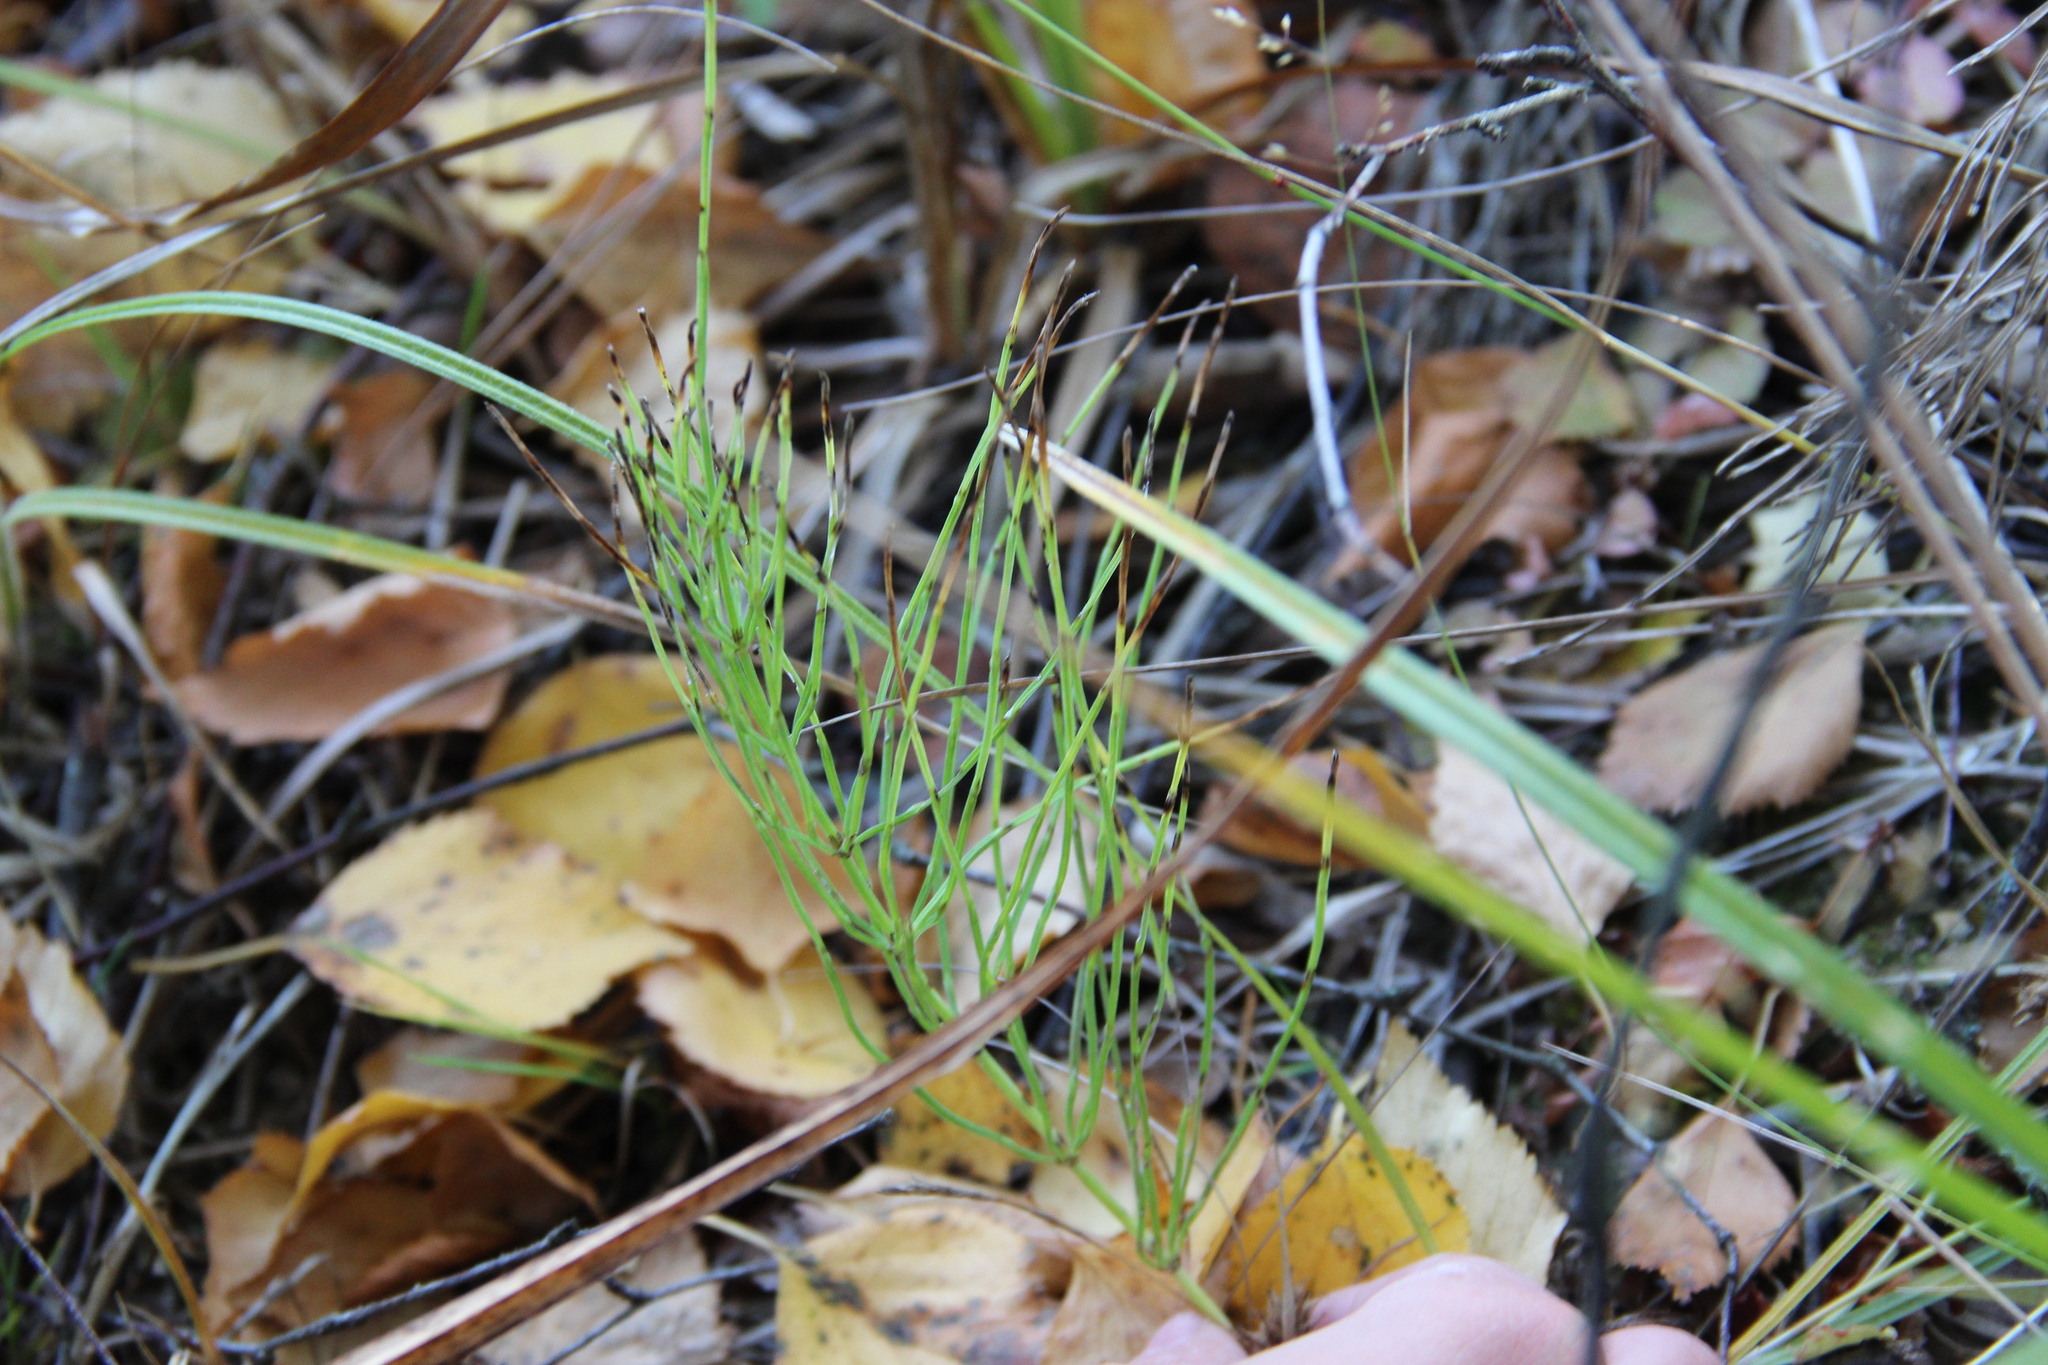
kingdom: Plantae
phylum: Tracheophyta
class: Polypodiopsida
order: Equisetales
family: Equisetaceae
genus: Equisetum
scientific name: Equisetum arvense
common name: Field horsetail
